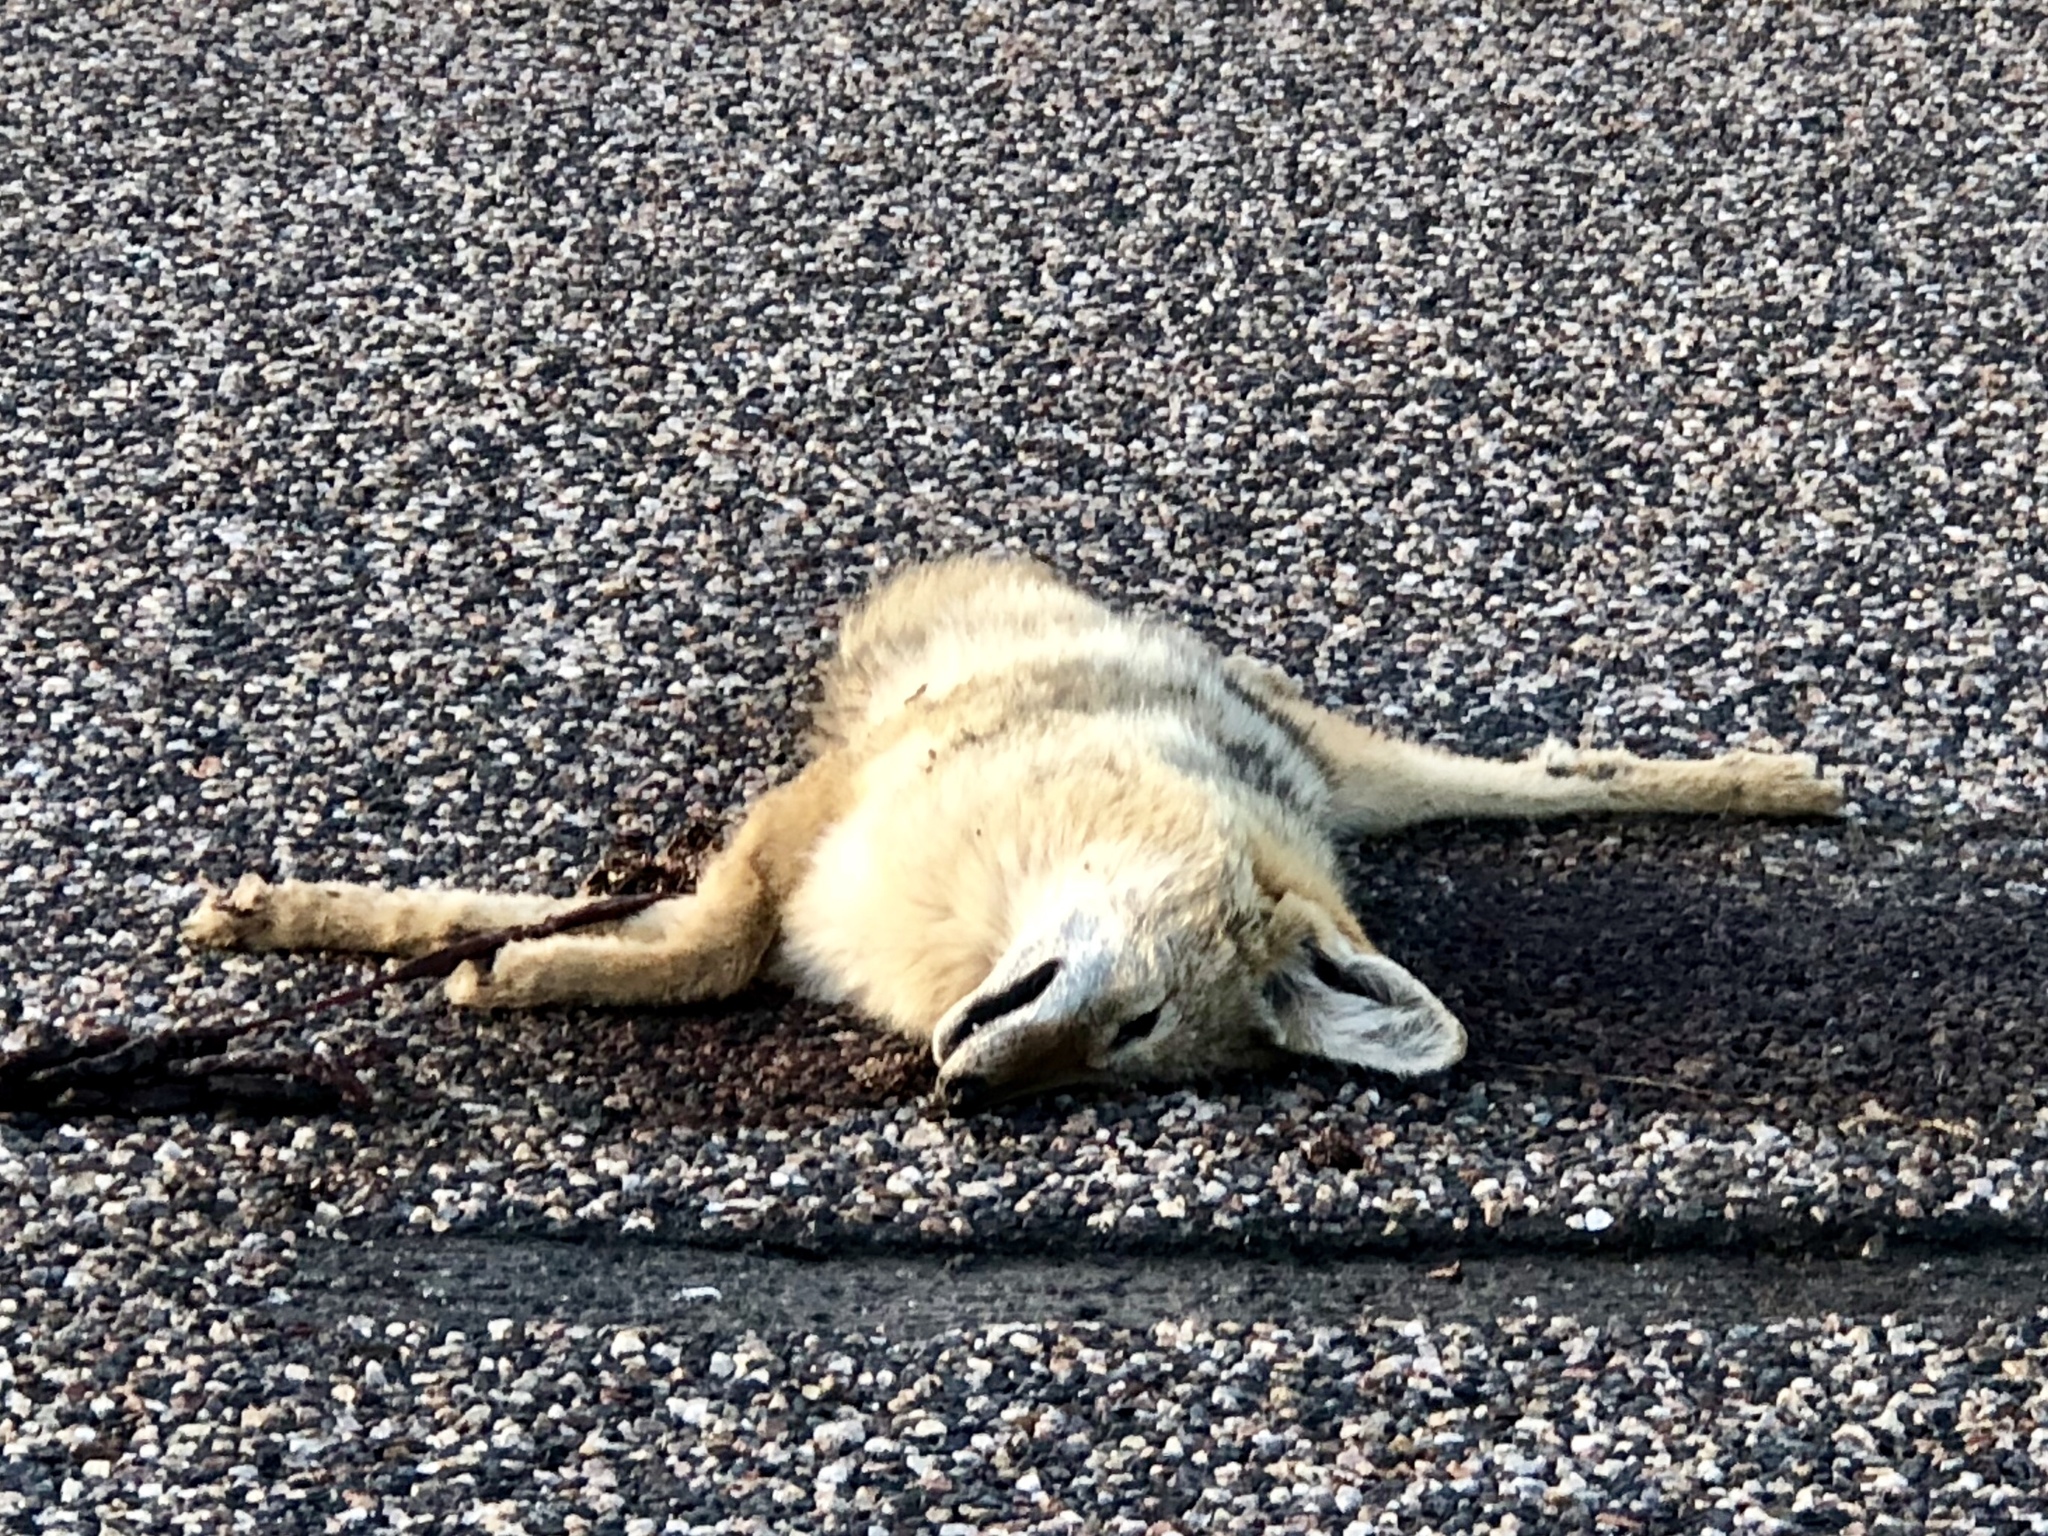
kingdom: Animalia
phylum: Chordata
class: Mammalia
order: Carnivora
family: Canidae
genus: Canis
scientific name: Canis latrans
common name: Coyote
